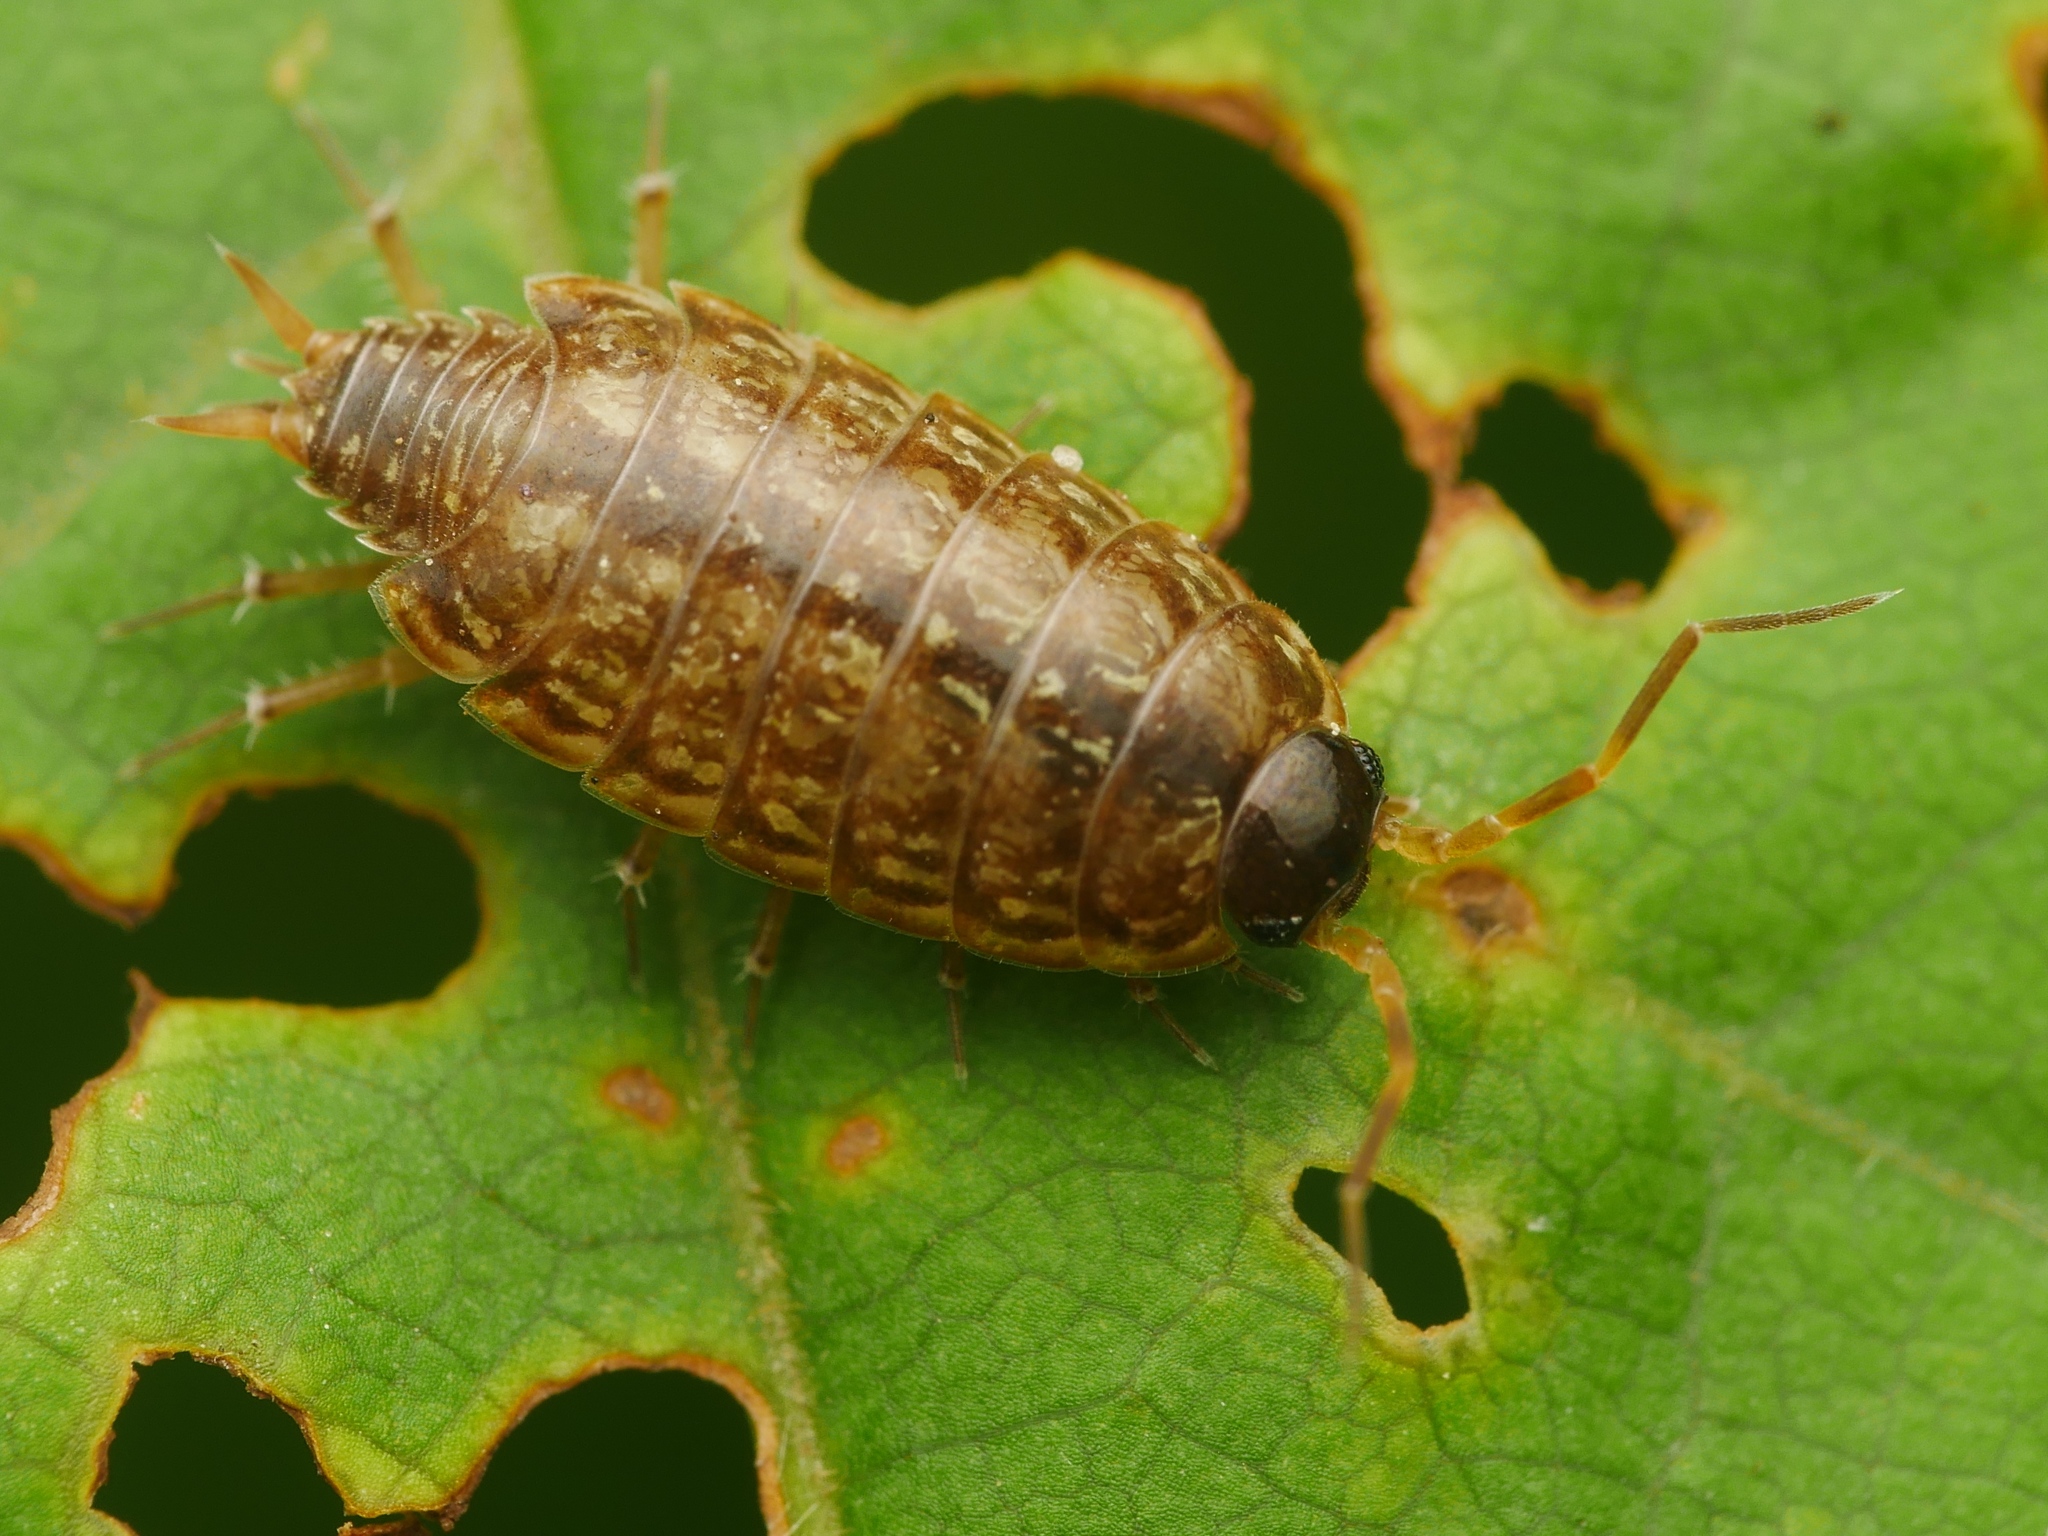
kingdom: Animalia
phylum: Arthropoda
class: Malacostraca
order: Isopoda
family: Philosciidae
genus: Philoscia
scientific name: Philoscia muscorum
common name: Common striped woodlouse
